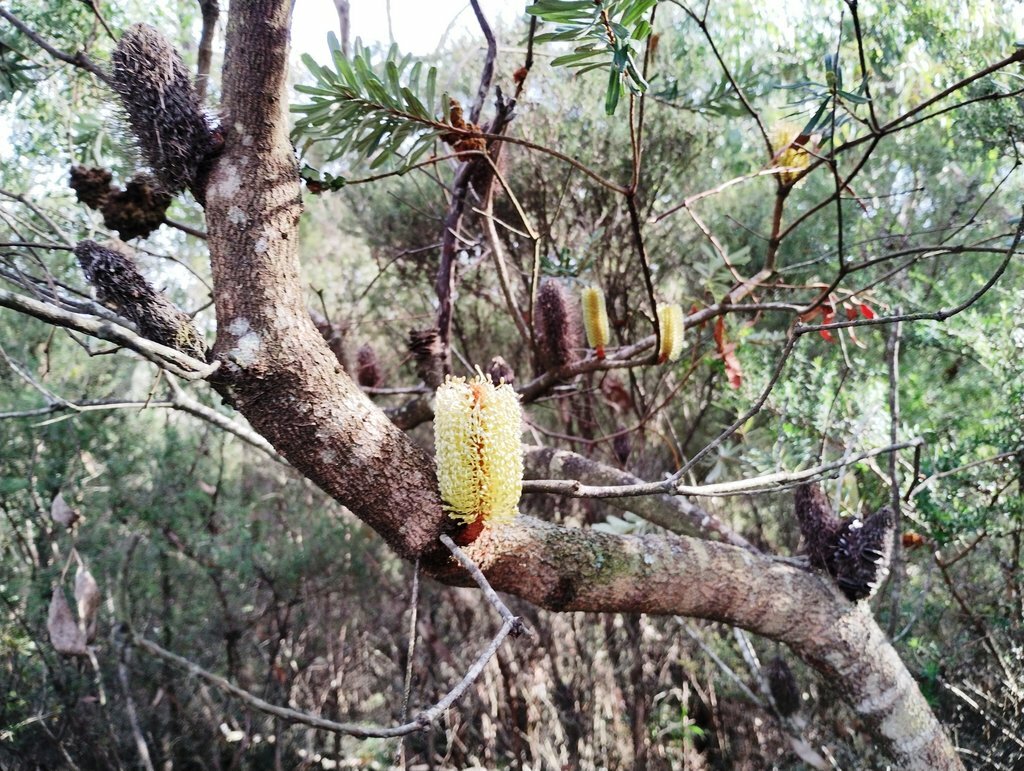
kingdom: Plantae
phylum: Tracheophyta
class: Magnoliopsida
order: Proteales
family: Proteaceae
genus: Banksia
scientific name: Banksia marginata
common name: Silver banksia
